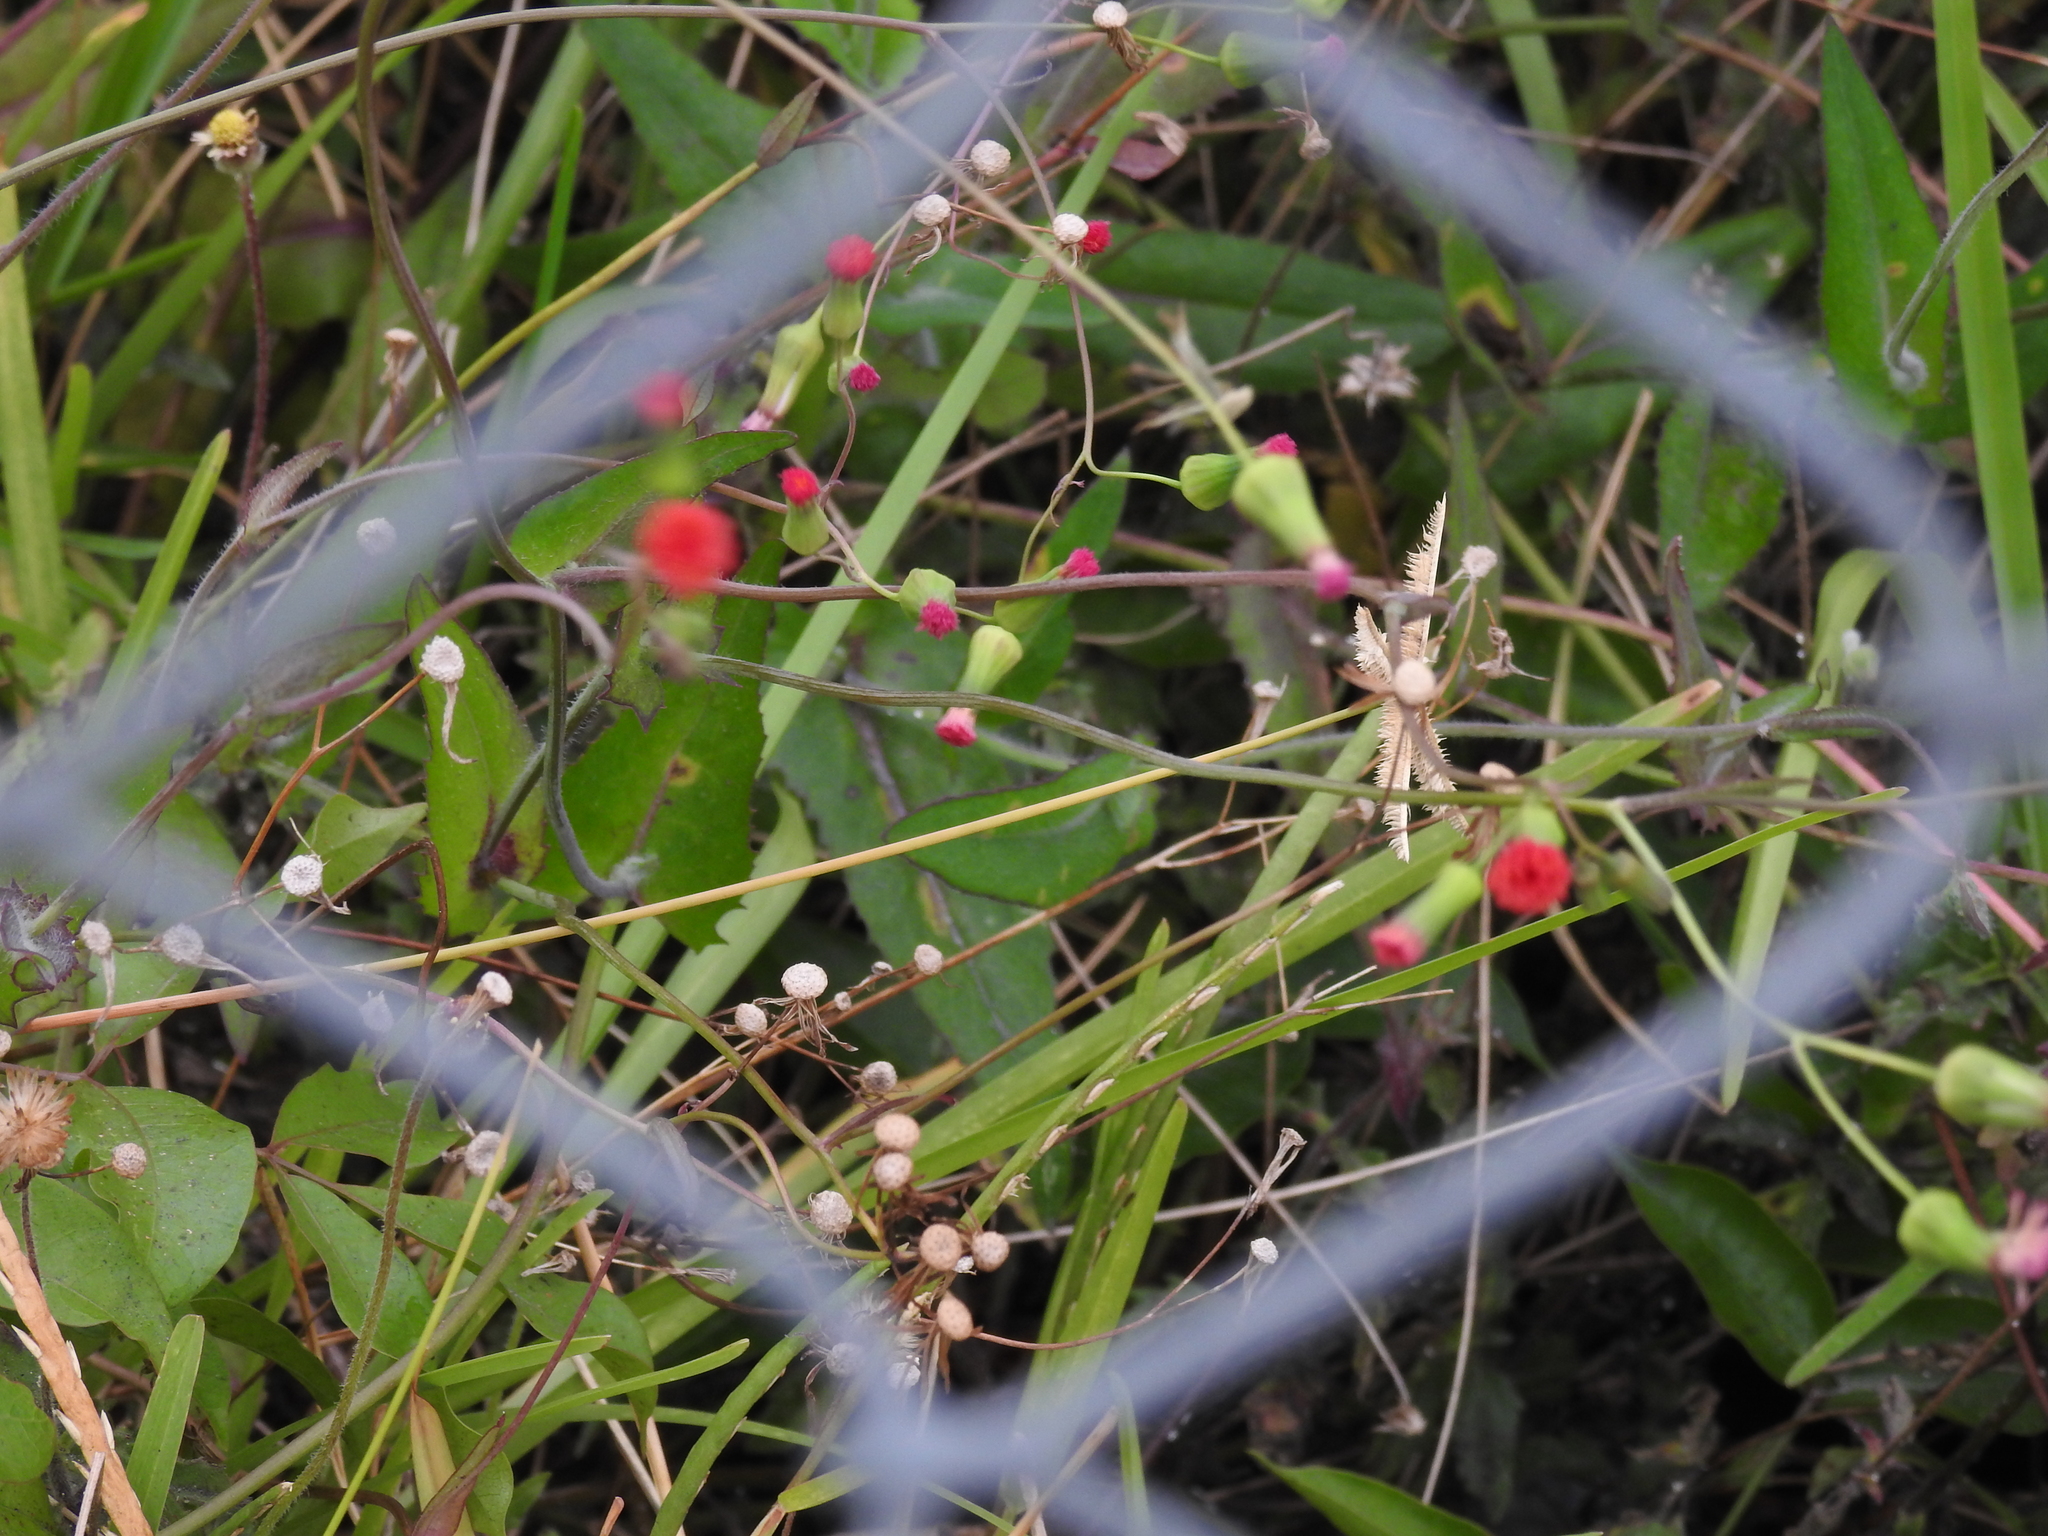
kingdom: Plantae
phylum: Tracheophyta
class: Magnoliopsida
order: Asterales
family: Asteraceae
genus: Emilia
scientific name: Emilia fosbergii
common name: Florida tasselflower
